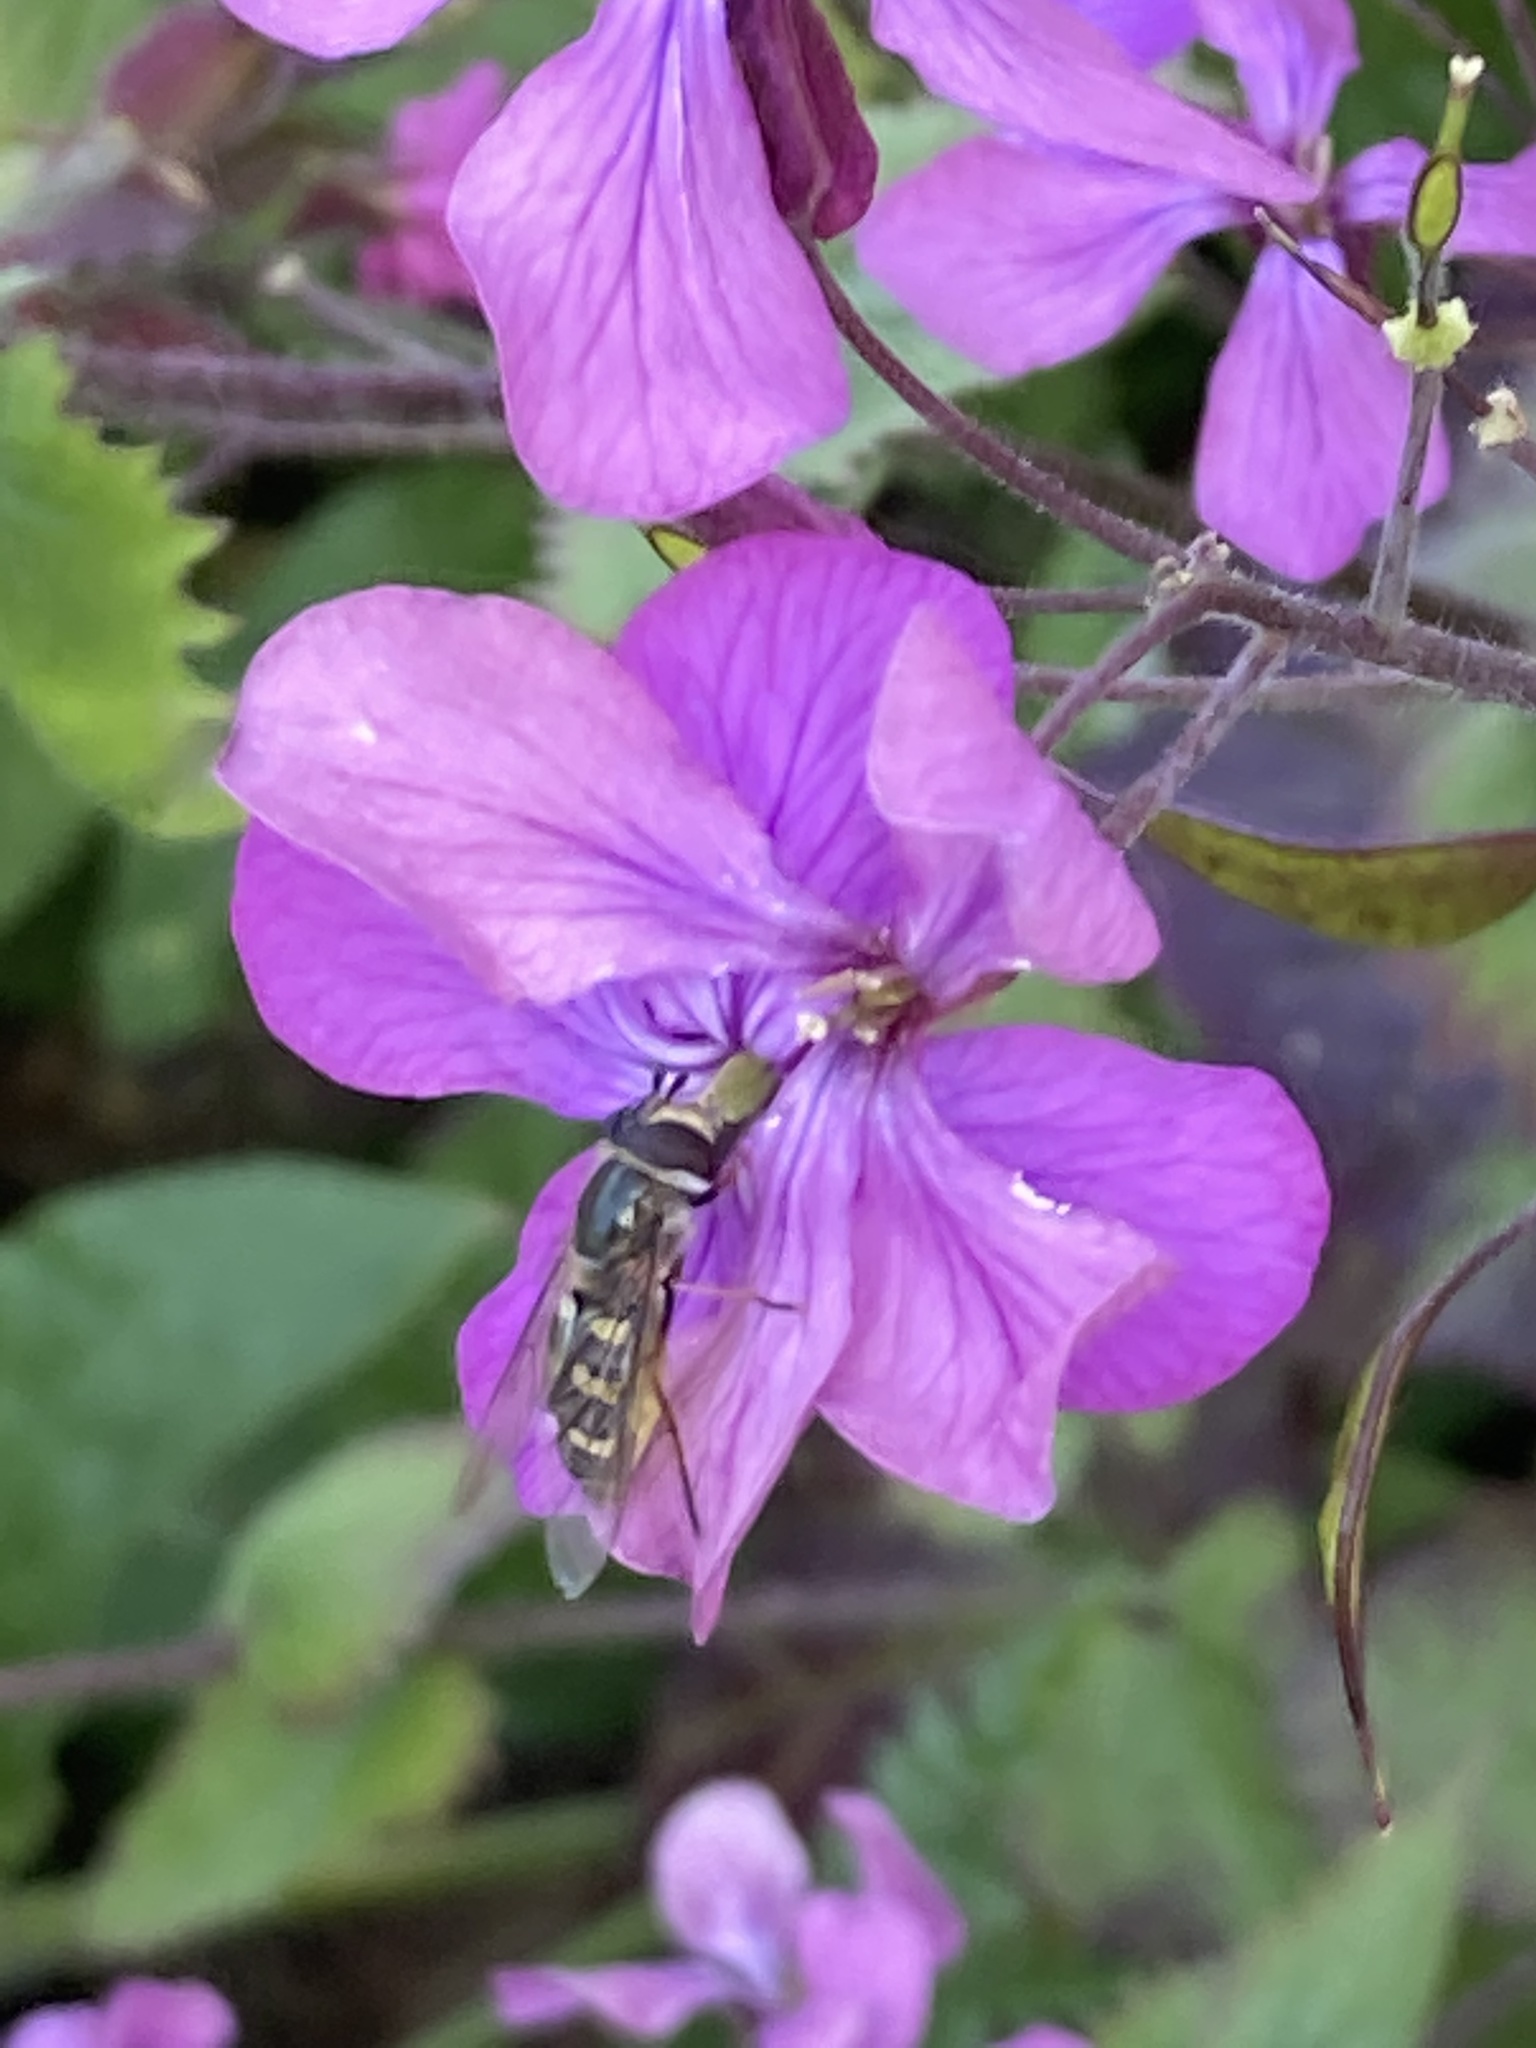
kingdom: Animalia
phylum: Arthropoda
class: Insecta
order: Diptera
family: Syrphidae
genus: Scaeva
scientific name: Scaeva pyrastri
